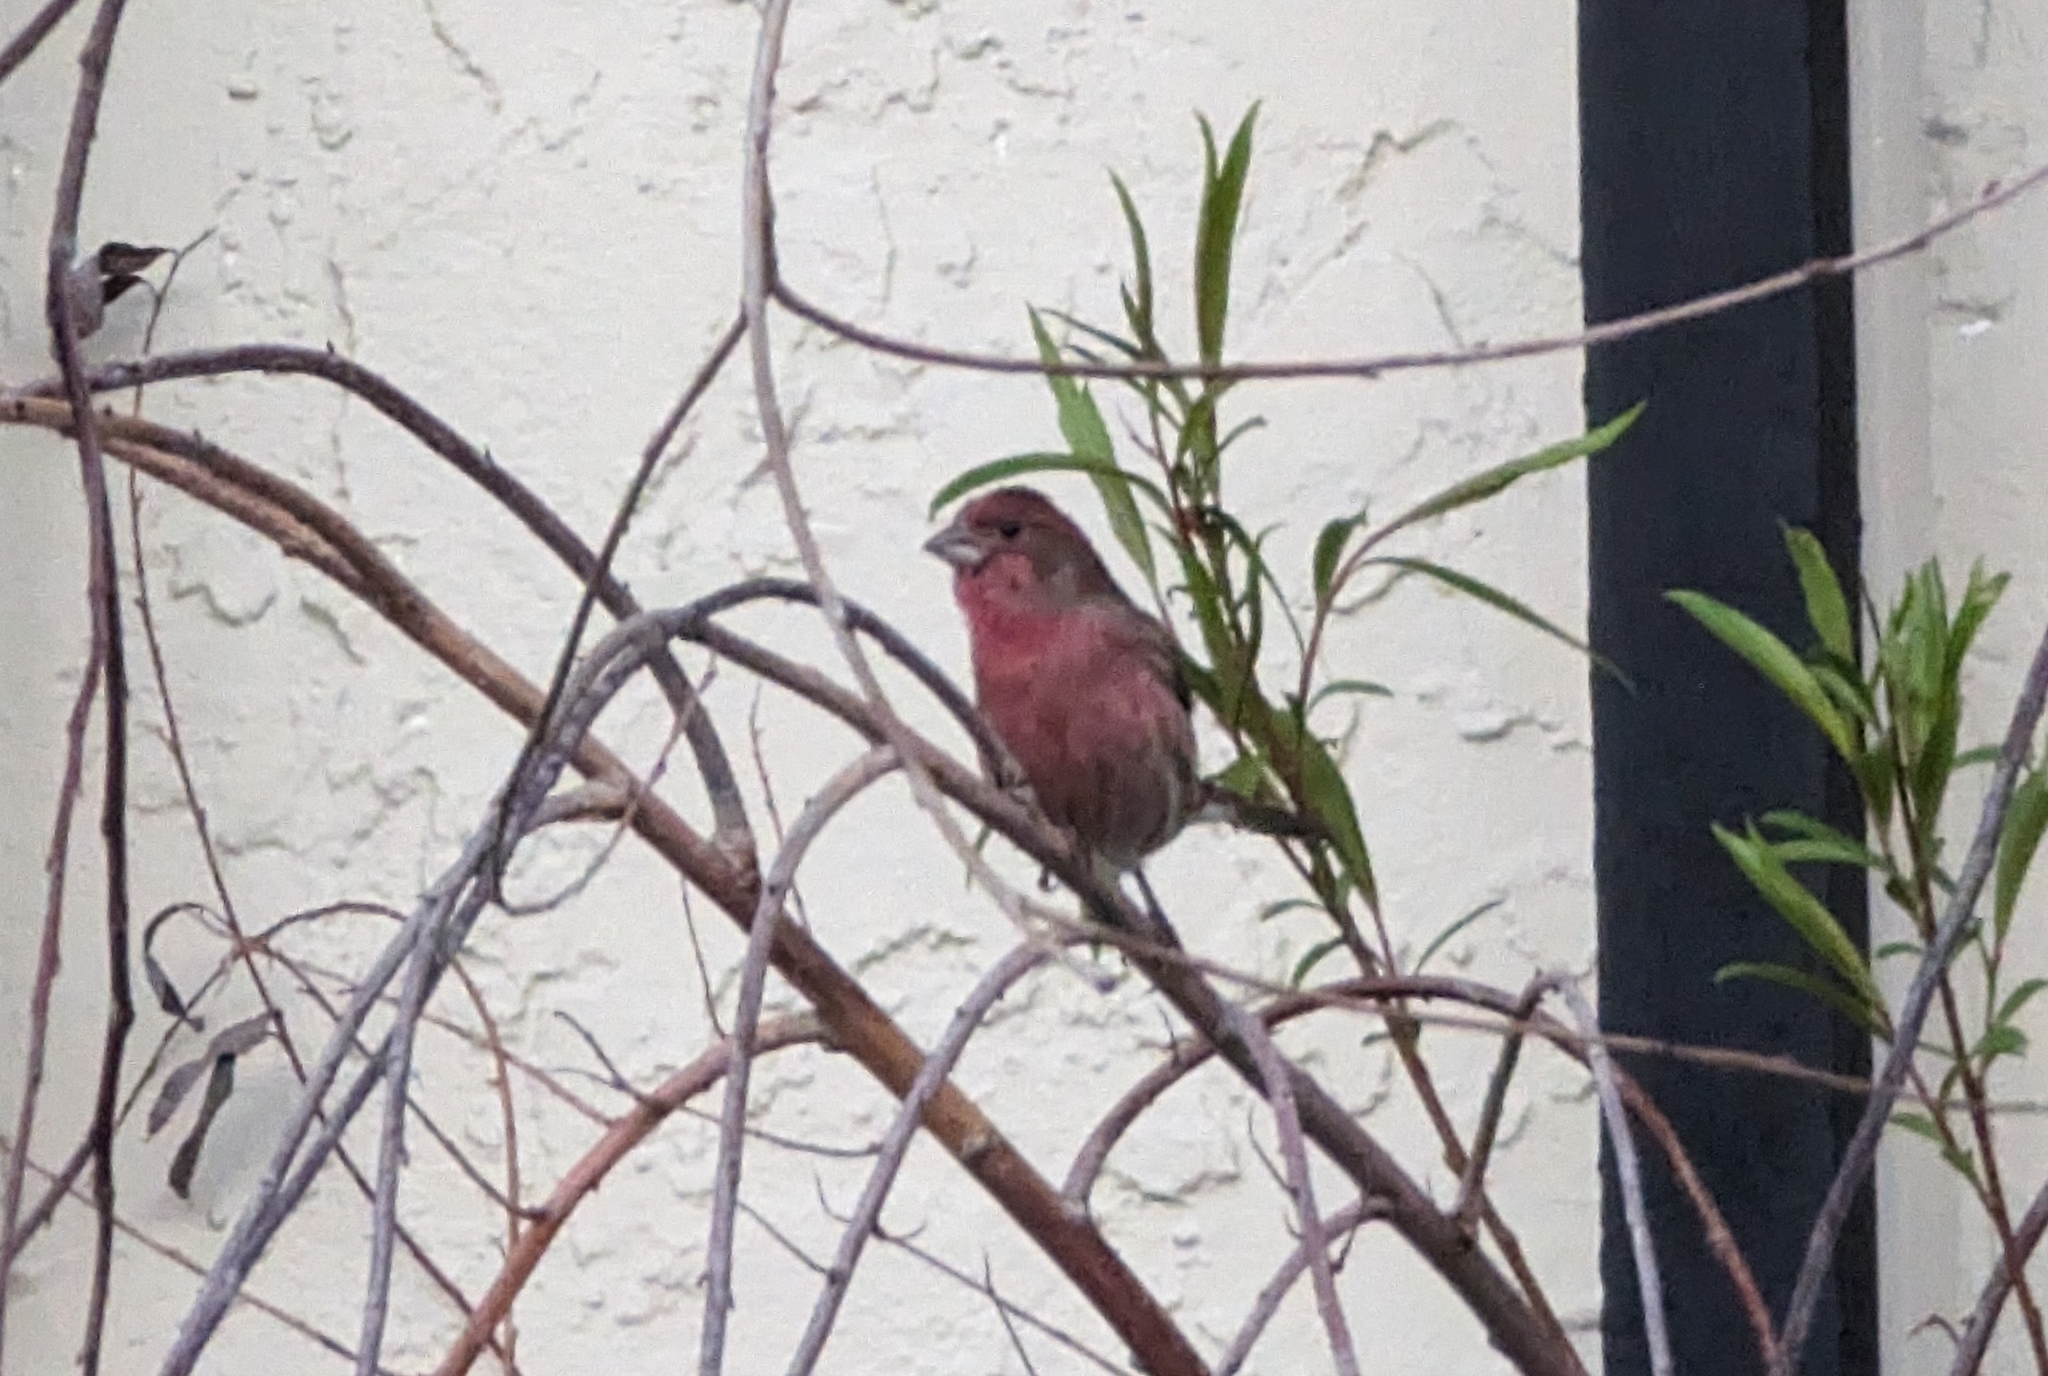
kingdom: Animalia
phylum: Chordata
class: Aves
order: Passeriformes
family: Fringillidae
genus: Haemorhous
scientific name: Haemorhous mexicanus
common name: House finch
